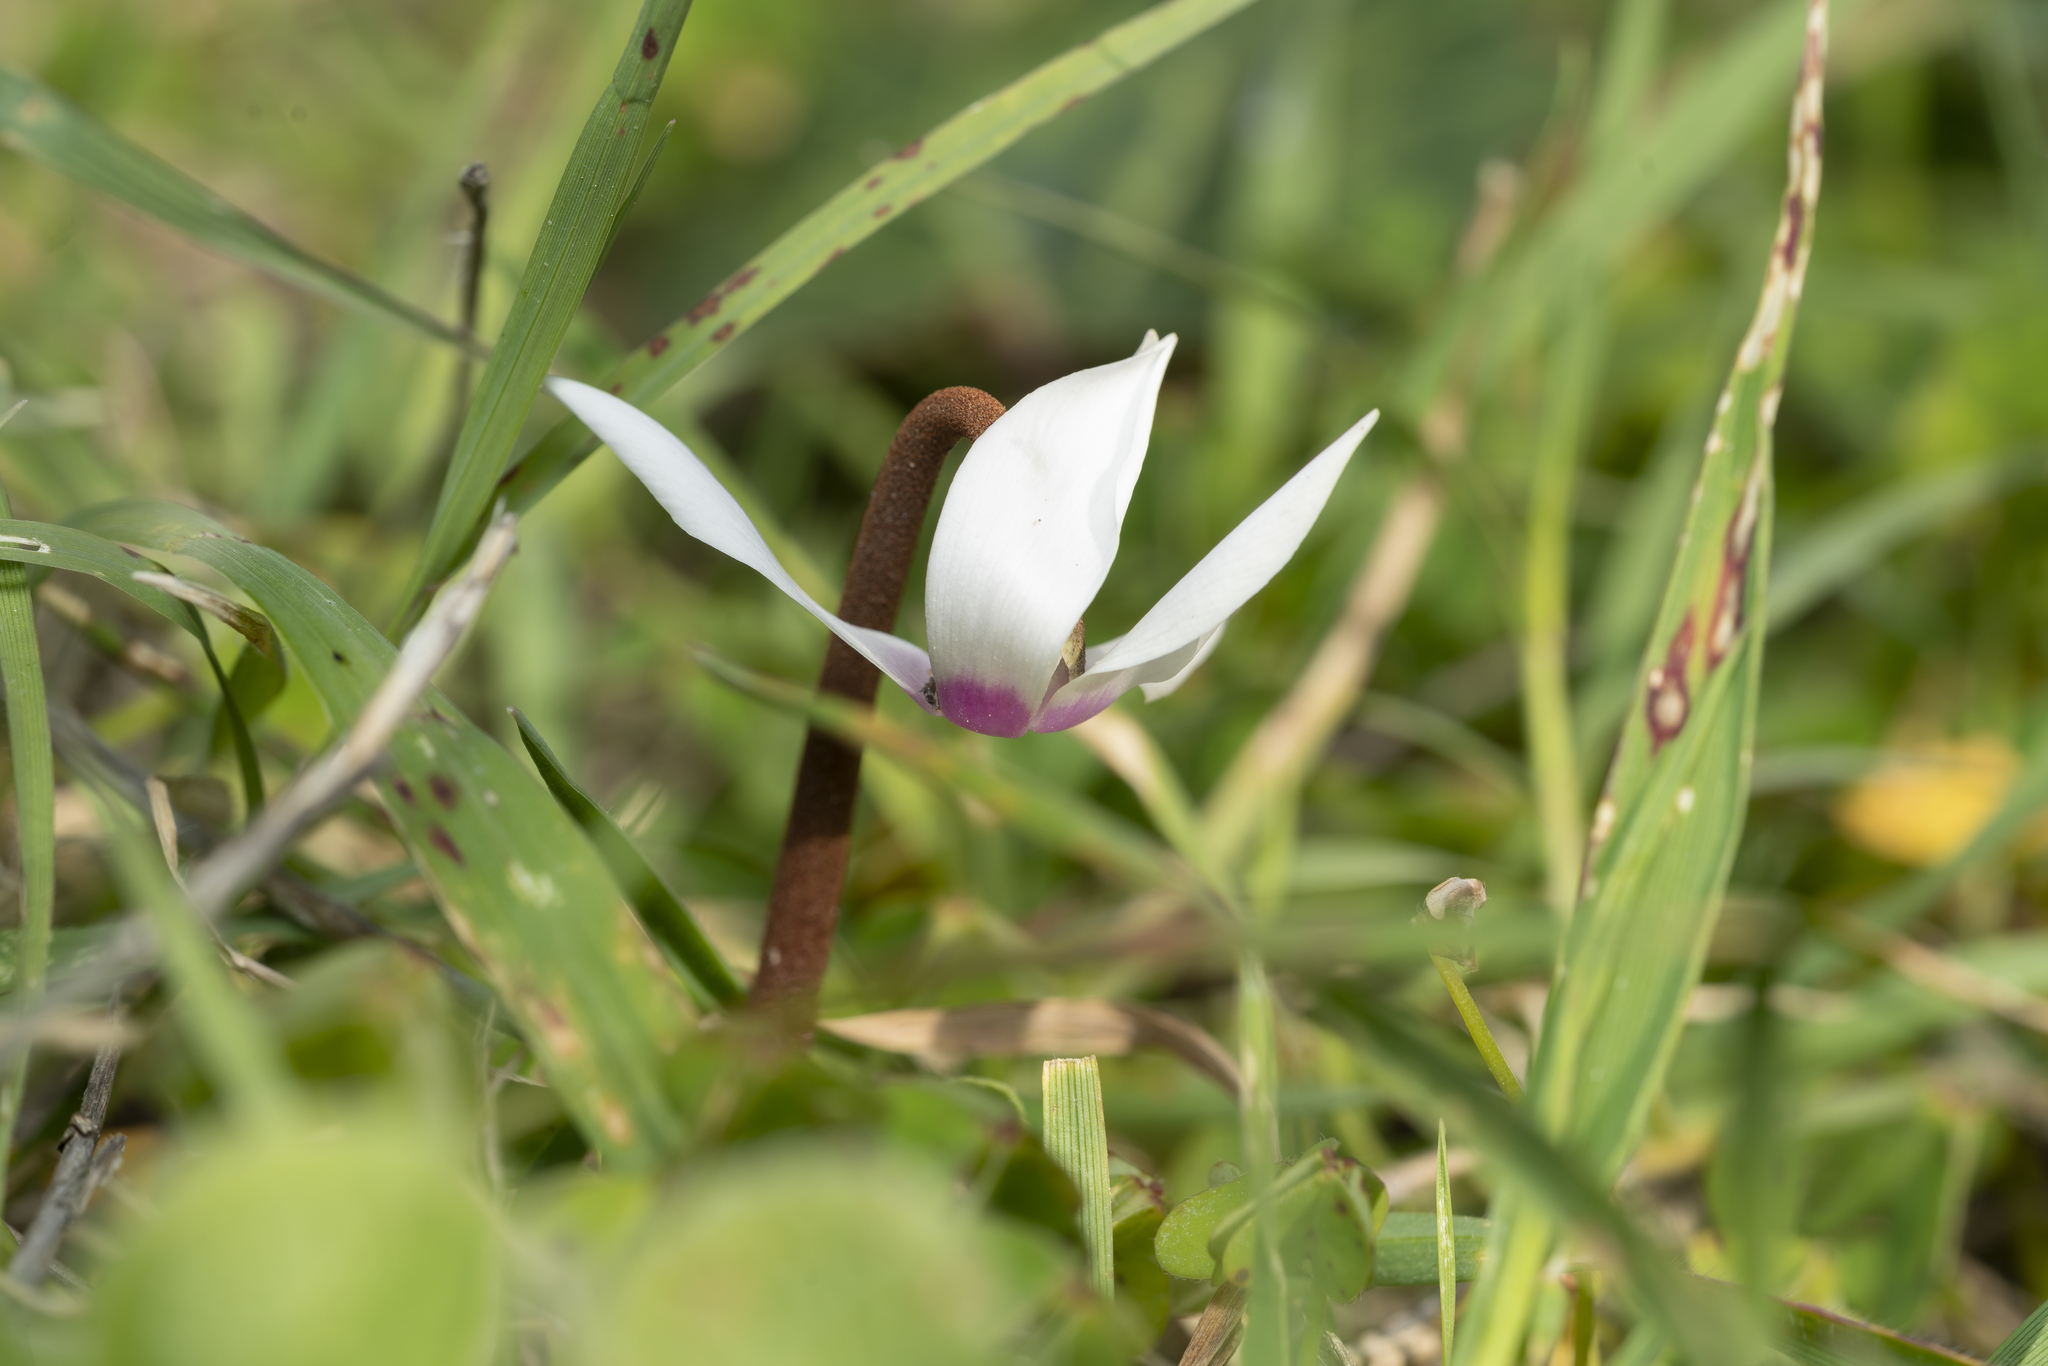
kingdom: Plantae
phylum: Tracheophyta
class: Magnoliopsida
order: Ericales
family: Primulaceae
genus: Cyclamen
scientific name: Cyclamen persicum
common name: Florist's cyclamen
